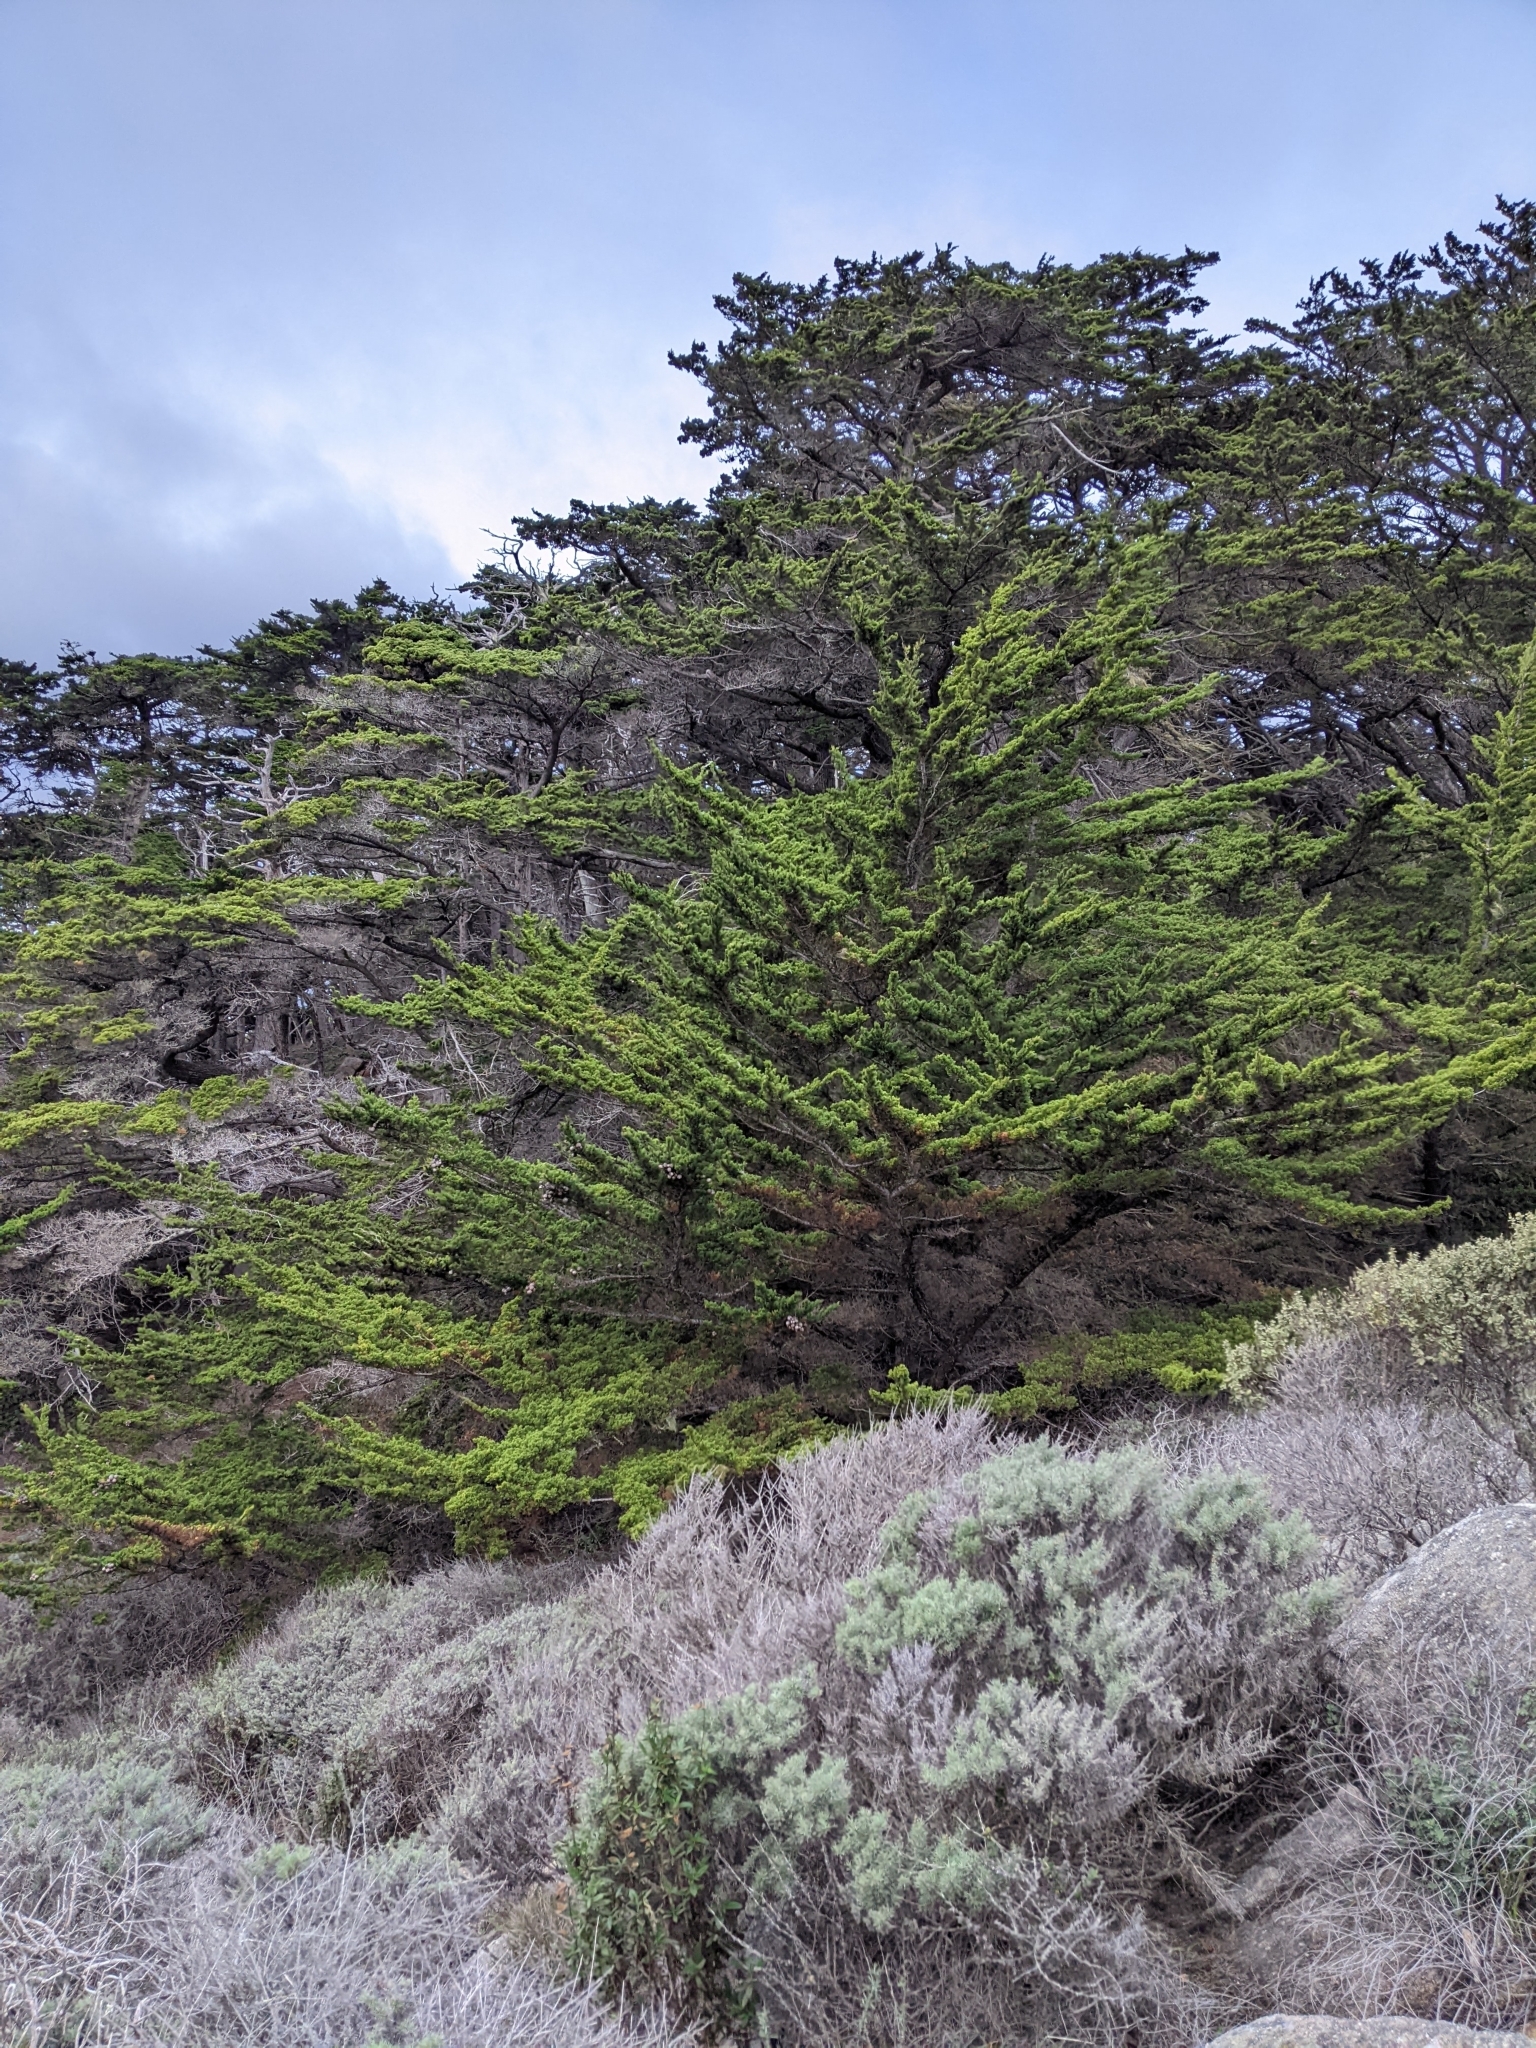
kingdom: Plantae
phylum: Tracheophyta
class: Pinopsida
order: Pinales
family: Cupressaceae
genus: Cupressus
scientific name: Cupressus macrocarpa
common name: Monterey cypress
